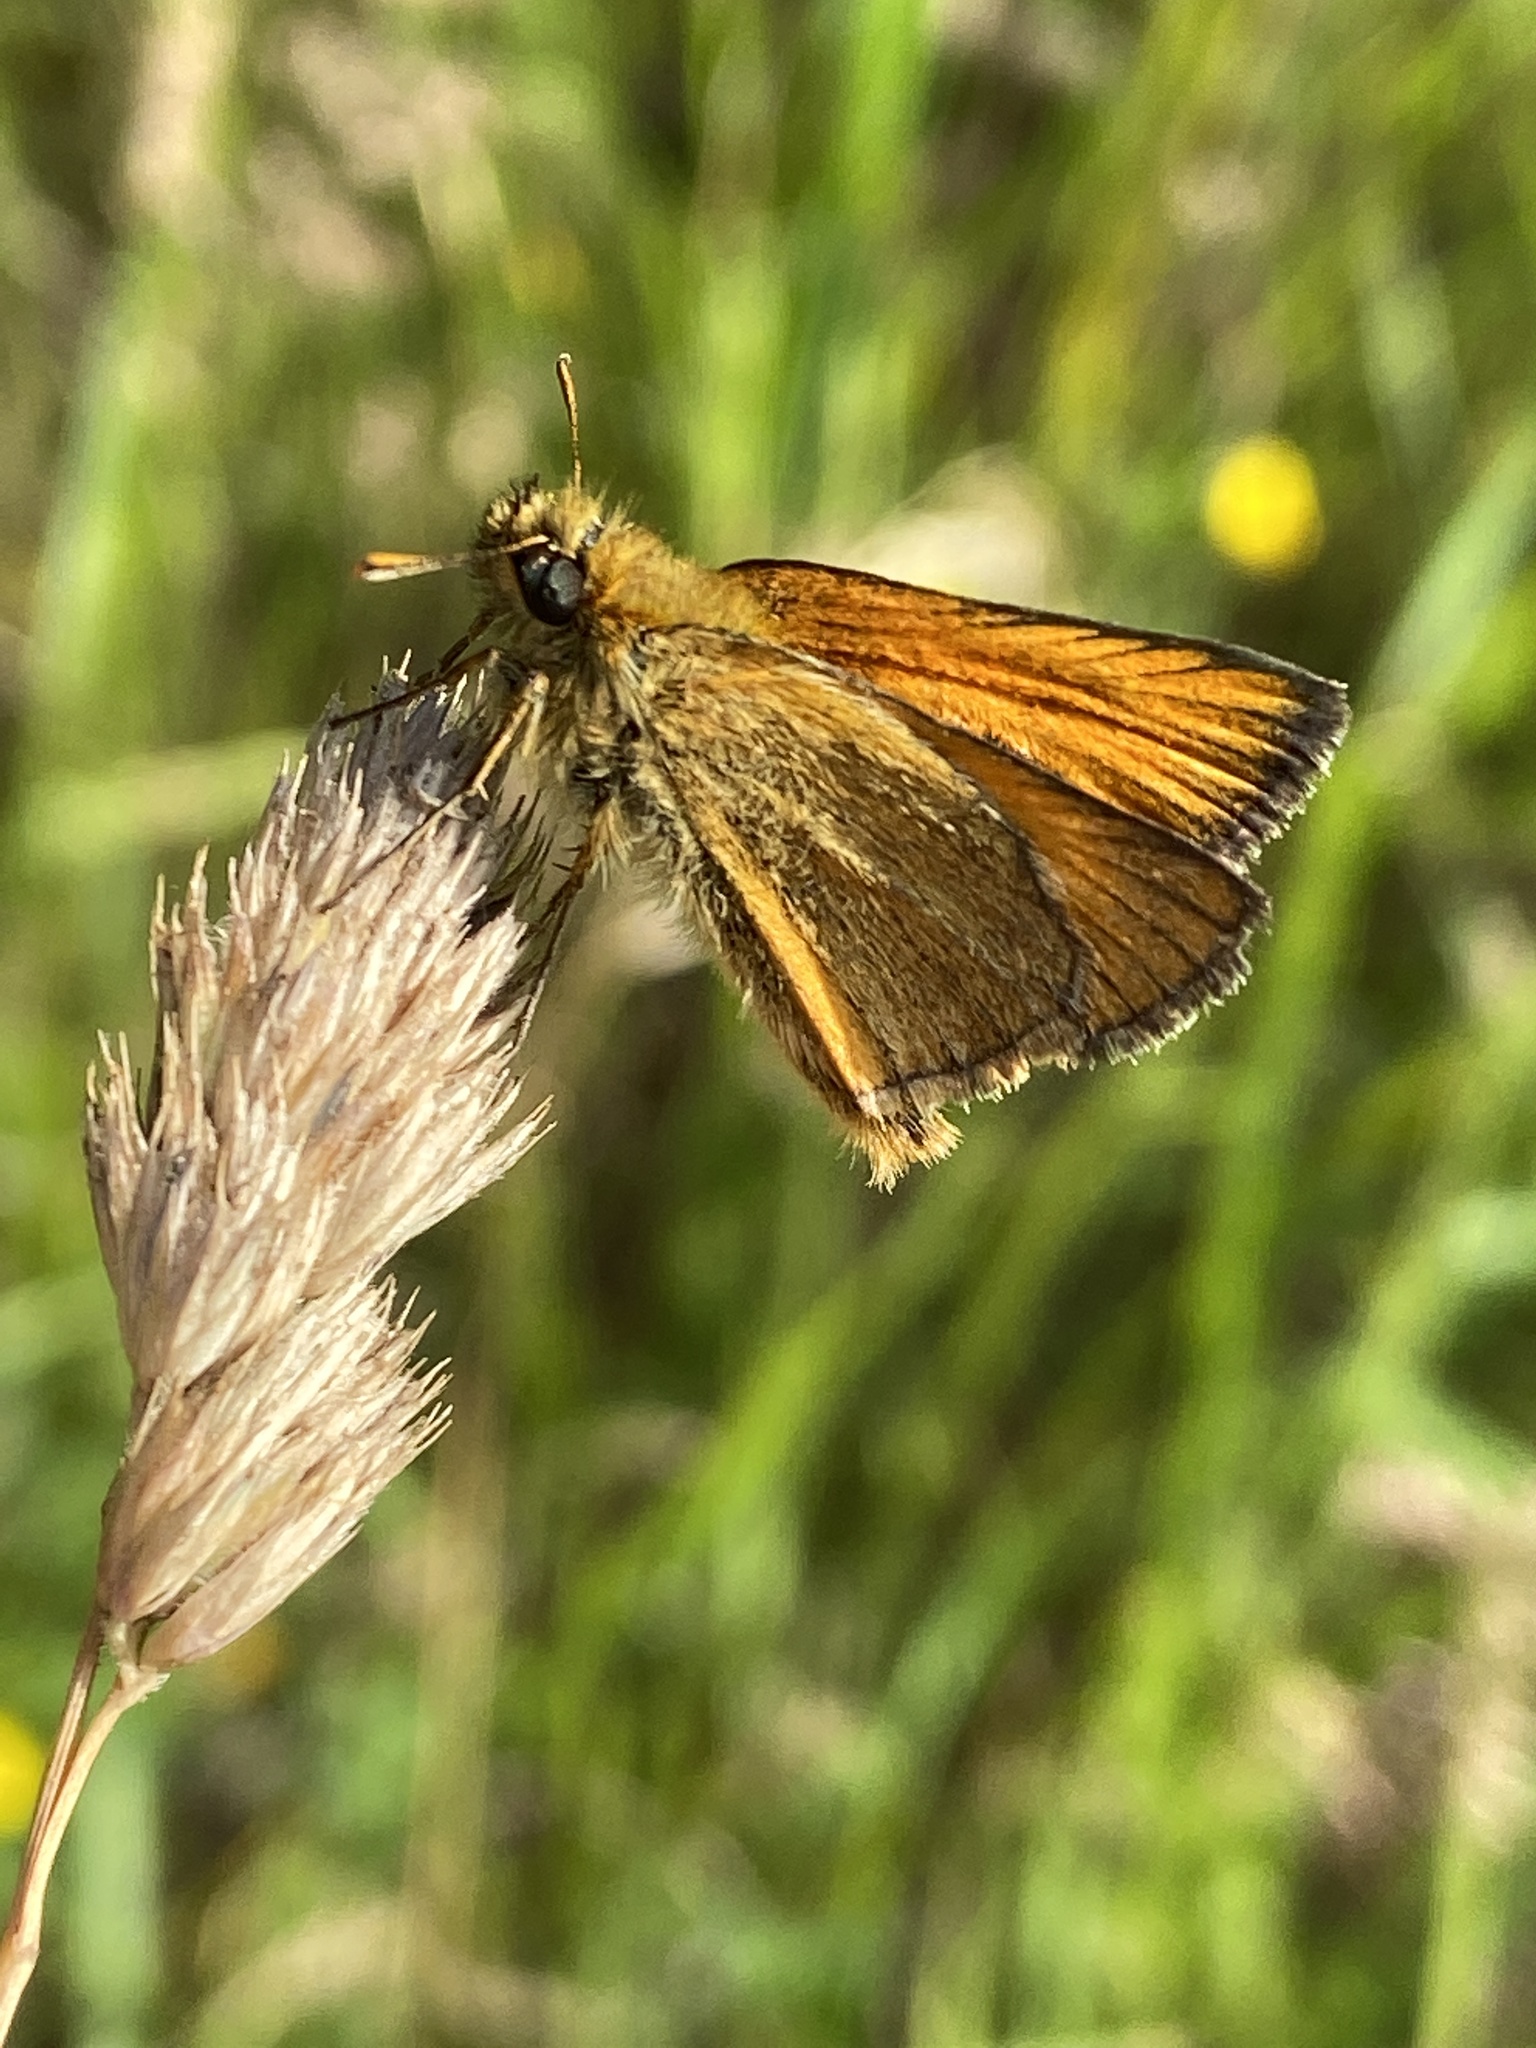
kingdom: Animalia
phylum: Arthropoda
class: Insecta
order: Lepidoptera
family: Hesperiidae
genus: Thymelicus
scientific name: Thymelicus sylvestris
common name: Small skipper
